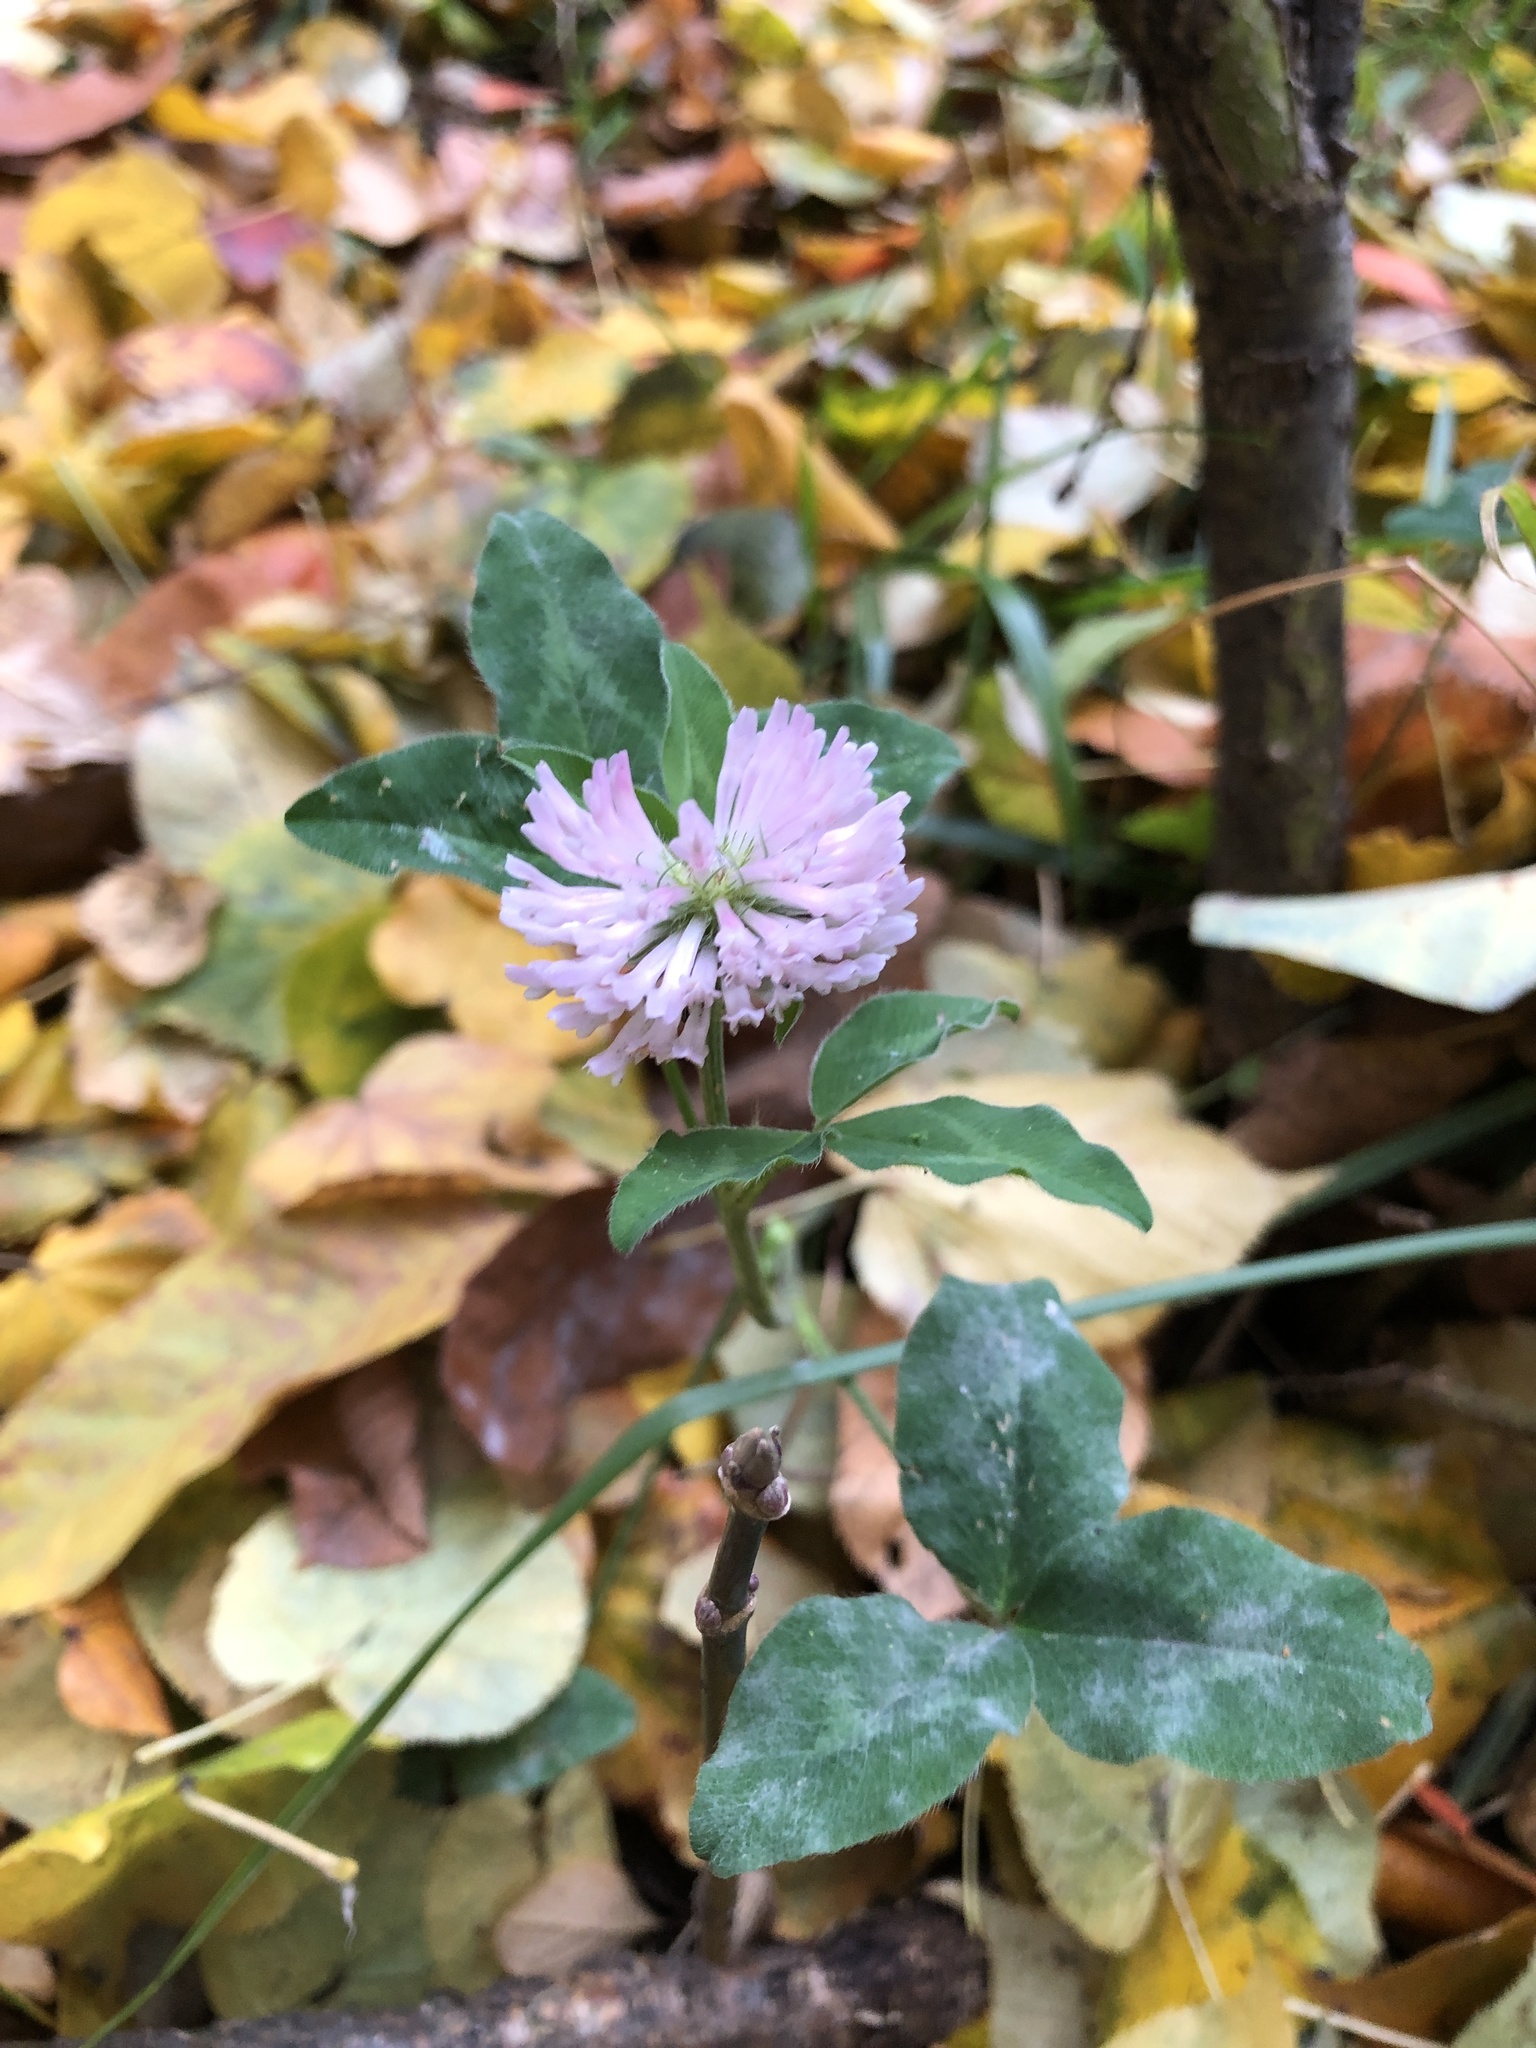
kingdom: Plantae
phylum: Tracheophyta
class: Magnoliopsida
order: Fabales
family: Fabaceae
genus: Trifolium
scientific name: Trifolium pratense
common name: Red clover
